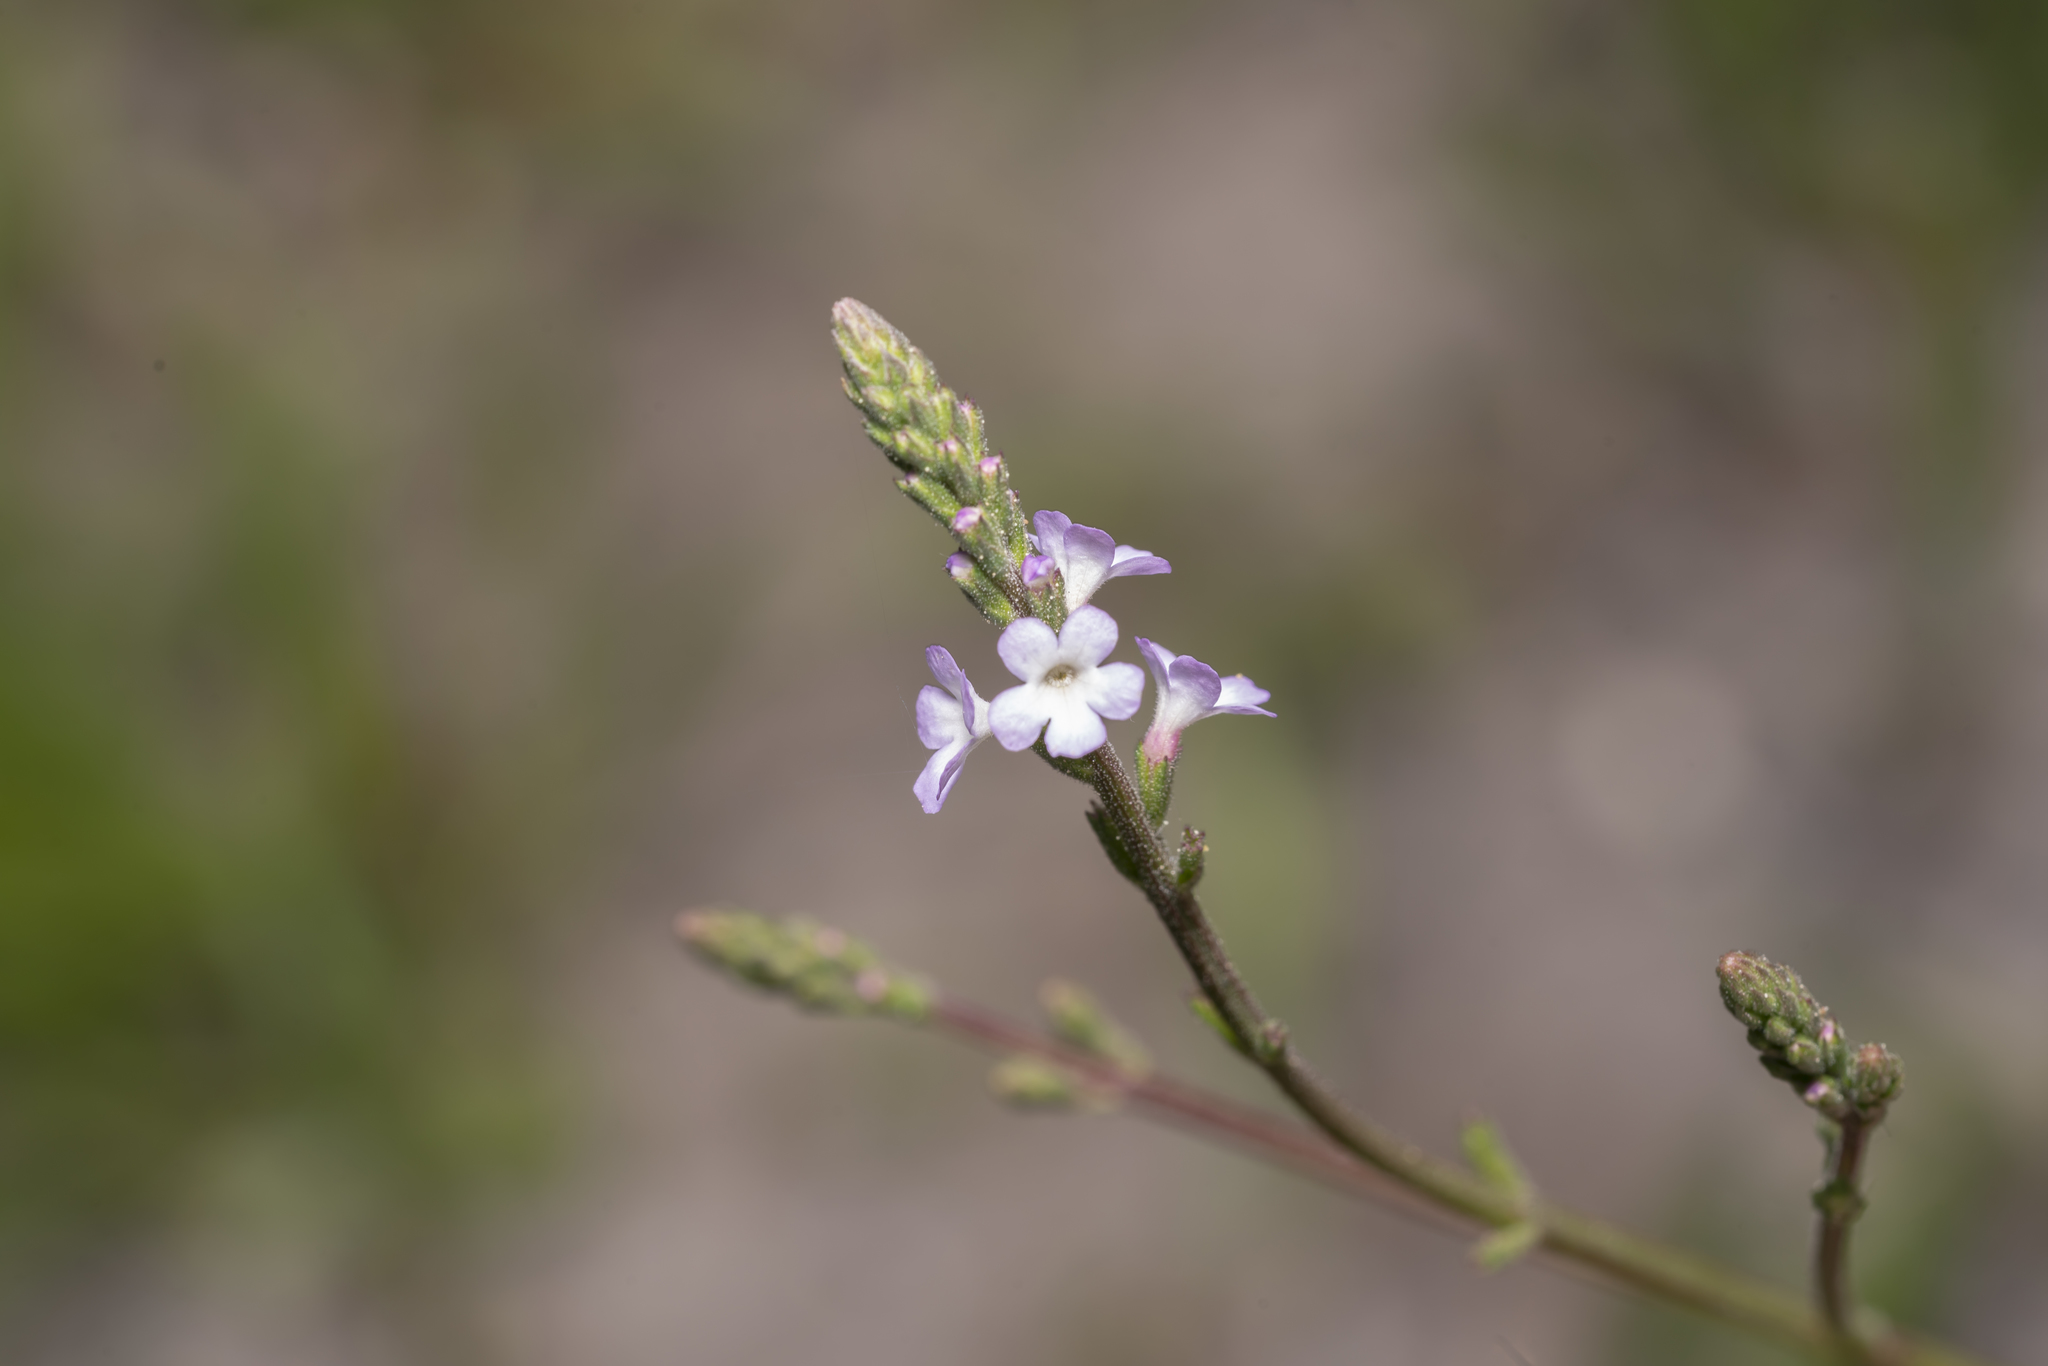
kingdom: Plantae
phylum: Tracheophyta
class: Magnoliopsida
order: Lamiales
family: Verbenaceae
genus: Verbena
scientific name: Verbena officinalis
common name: Vervain
